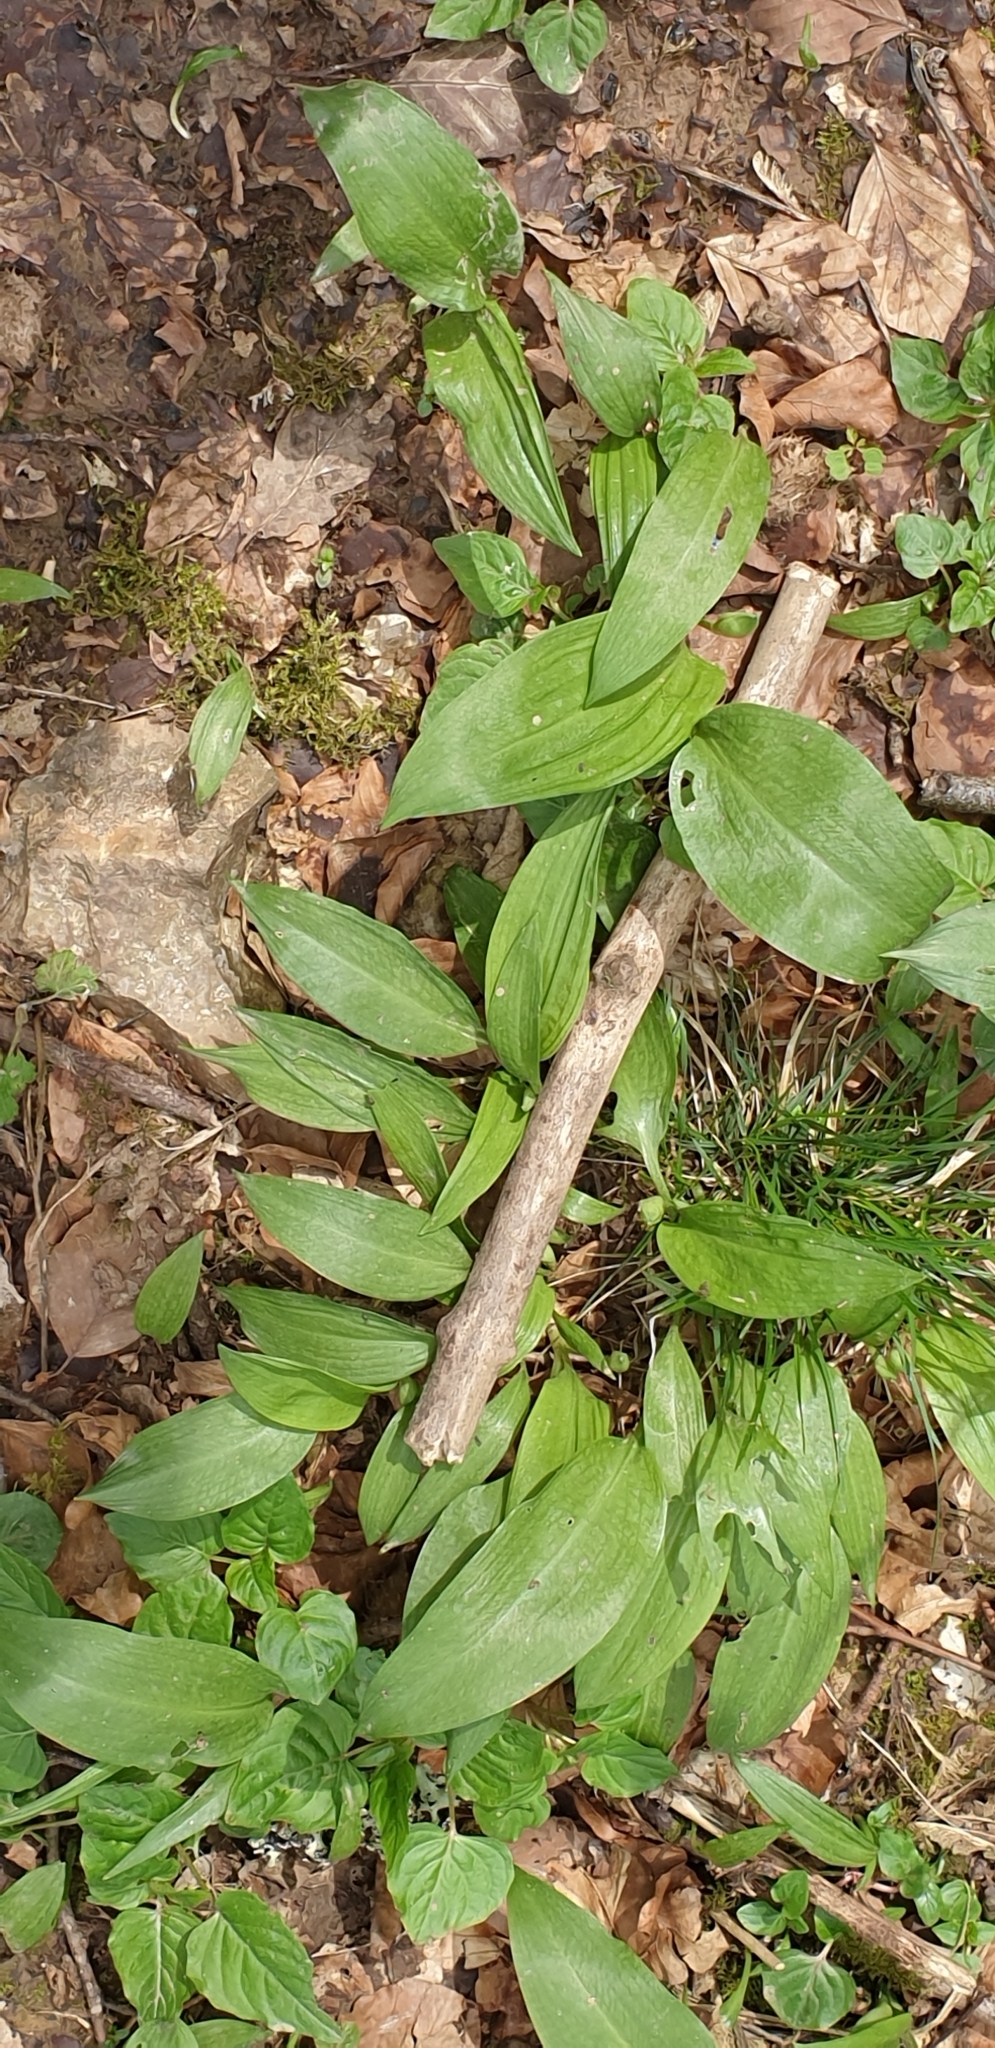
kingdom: Plantae
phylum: Tracheophyta
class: Liliopsida
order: Asparagales
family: Amaryllidaceae
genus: Allium
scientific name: Allium ursinum
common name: Ramsons
